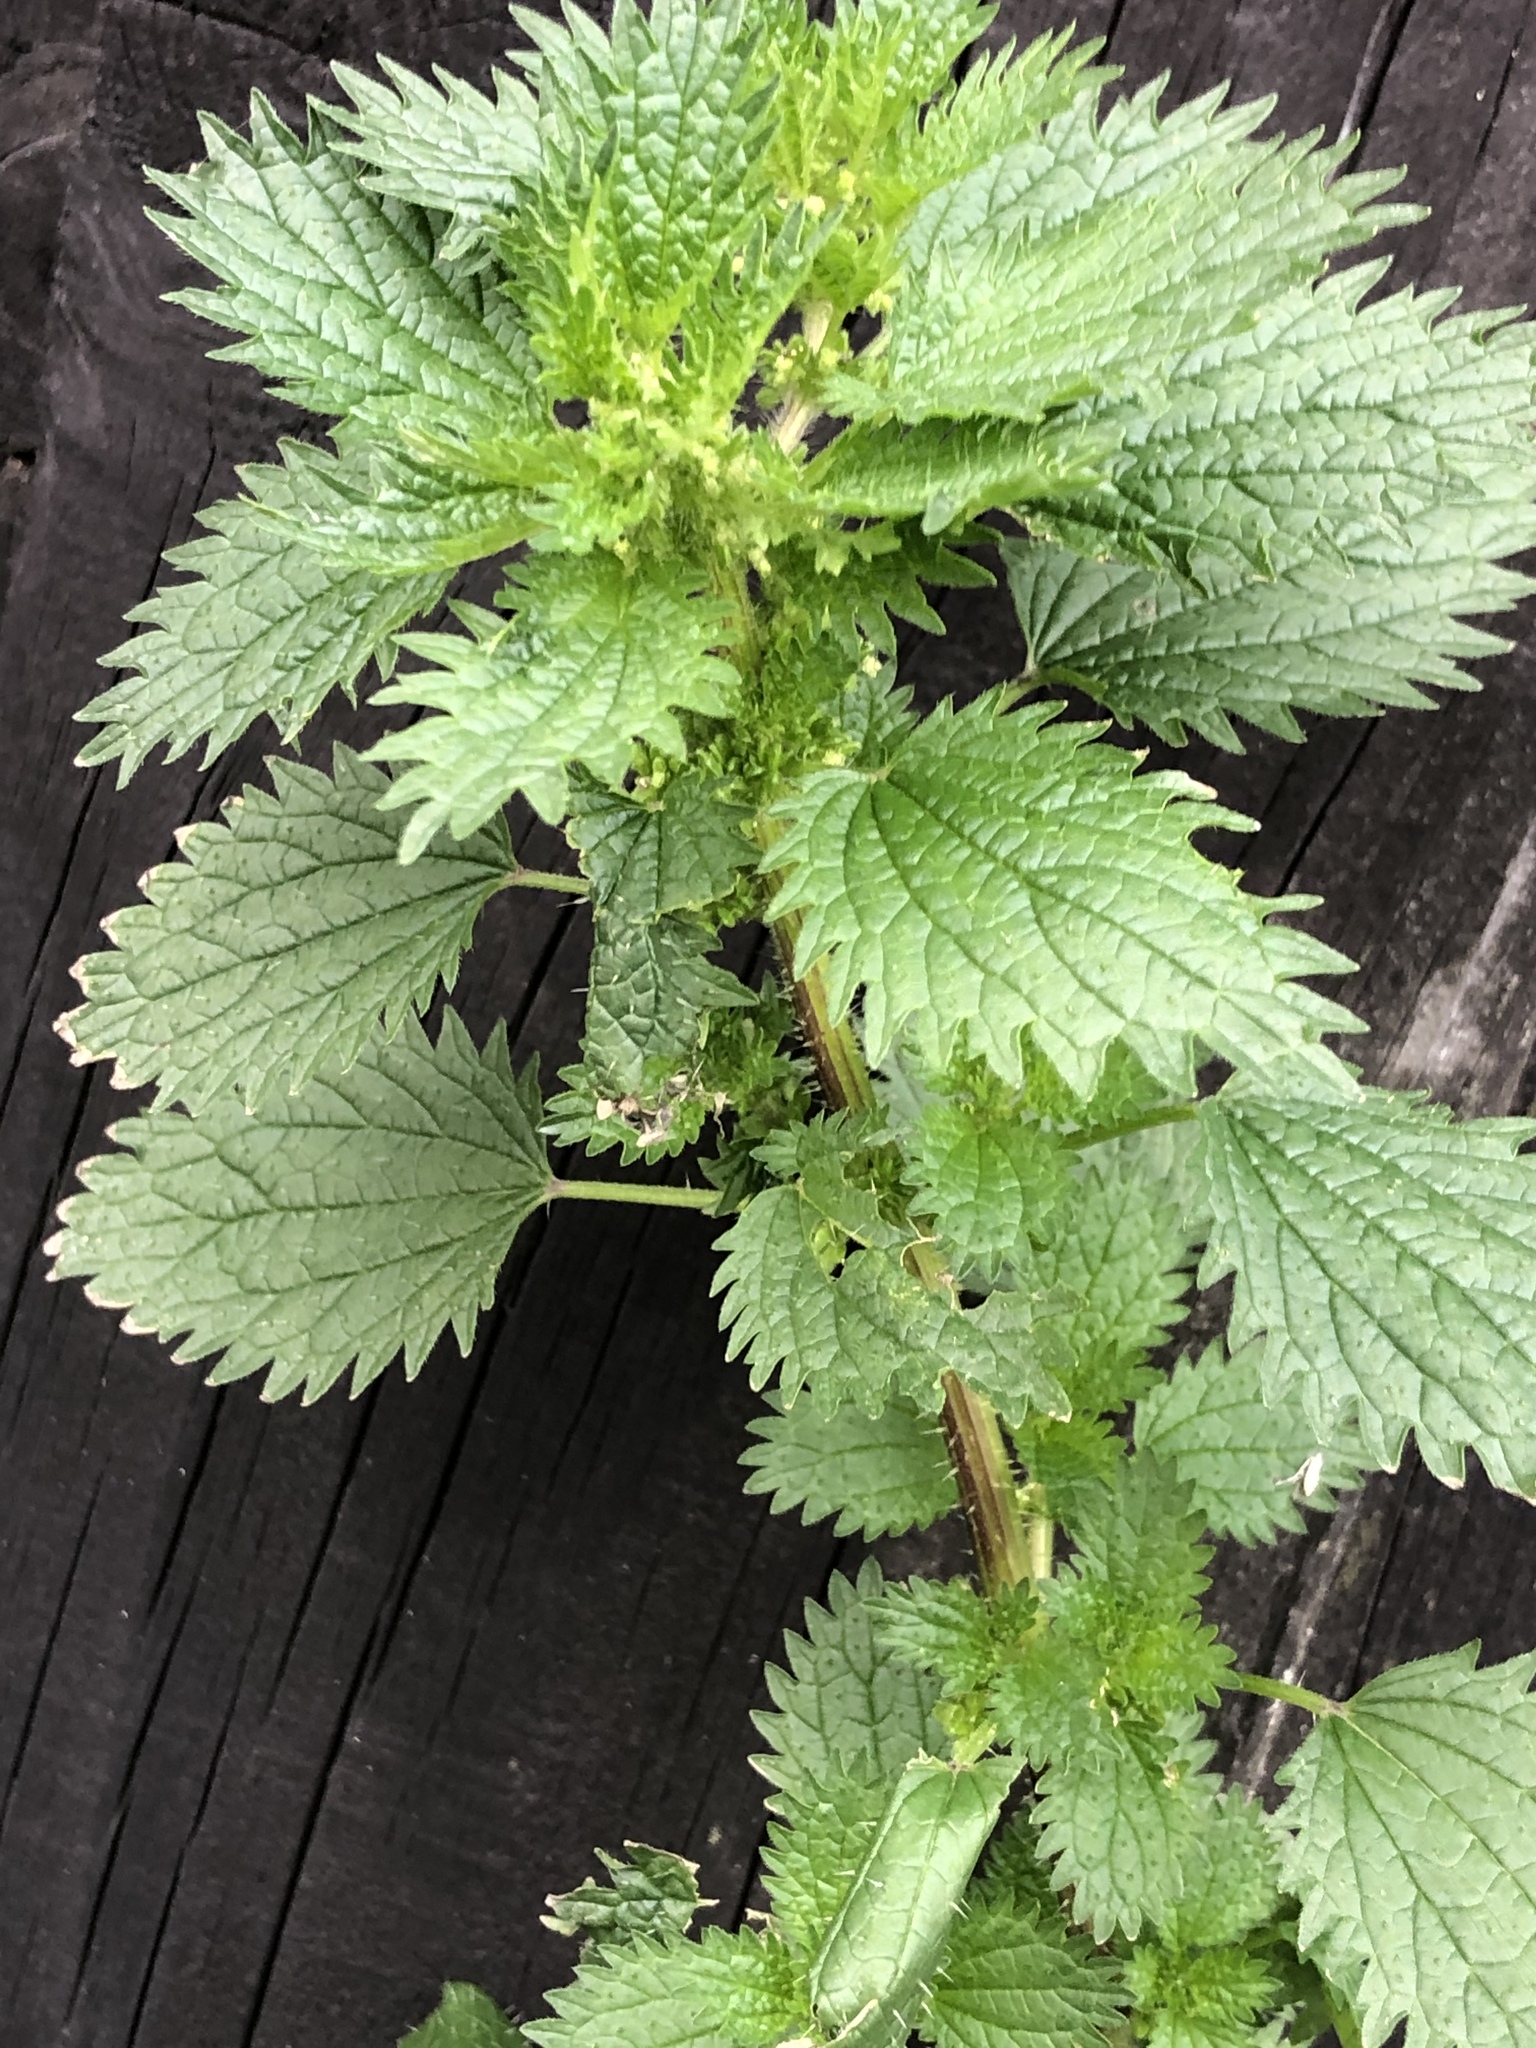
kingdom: Plantae
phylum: Tracheophyta
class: Magnoliopsida
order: Rosales
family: Urticaceae
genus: Urtica
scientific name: Urtica urens
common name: Dwarf nettle
